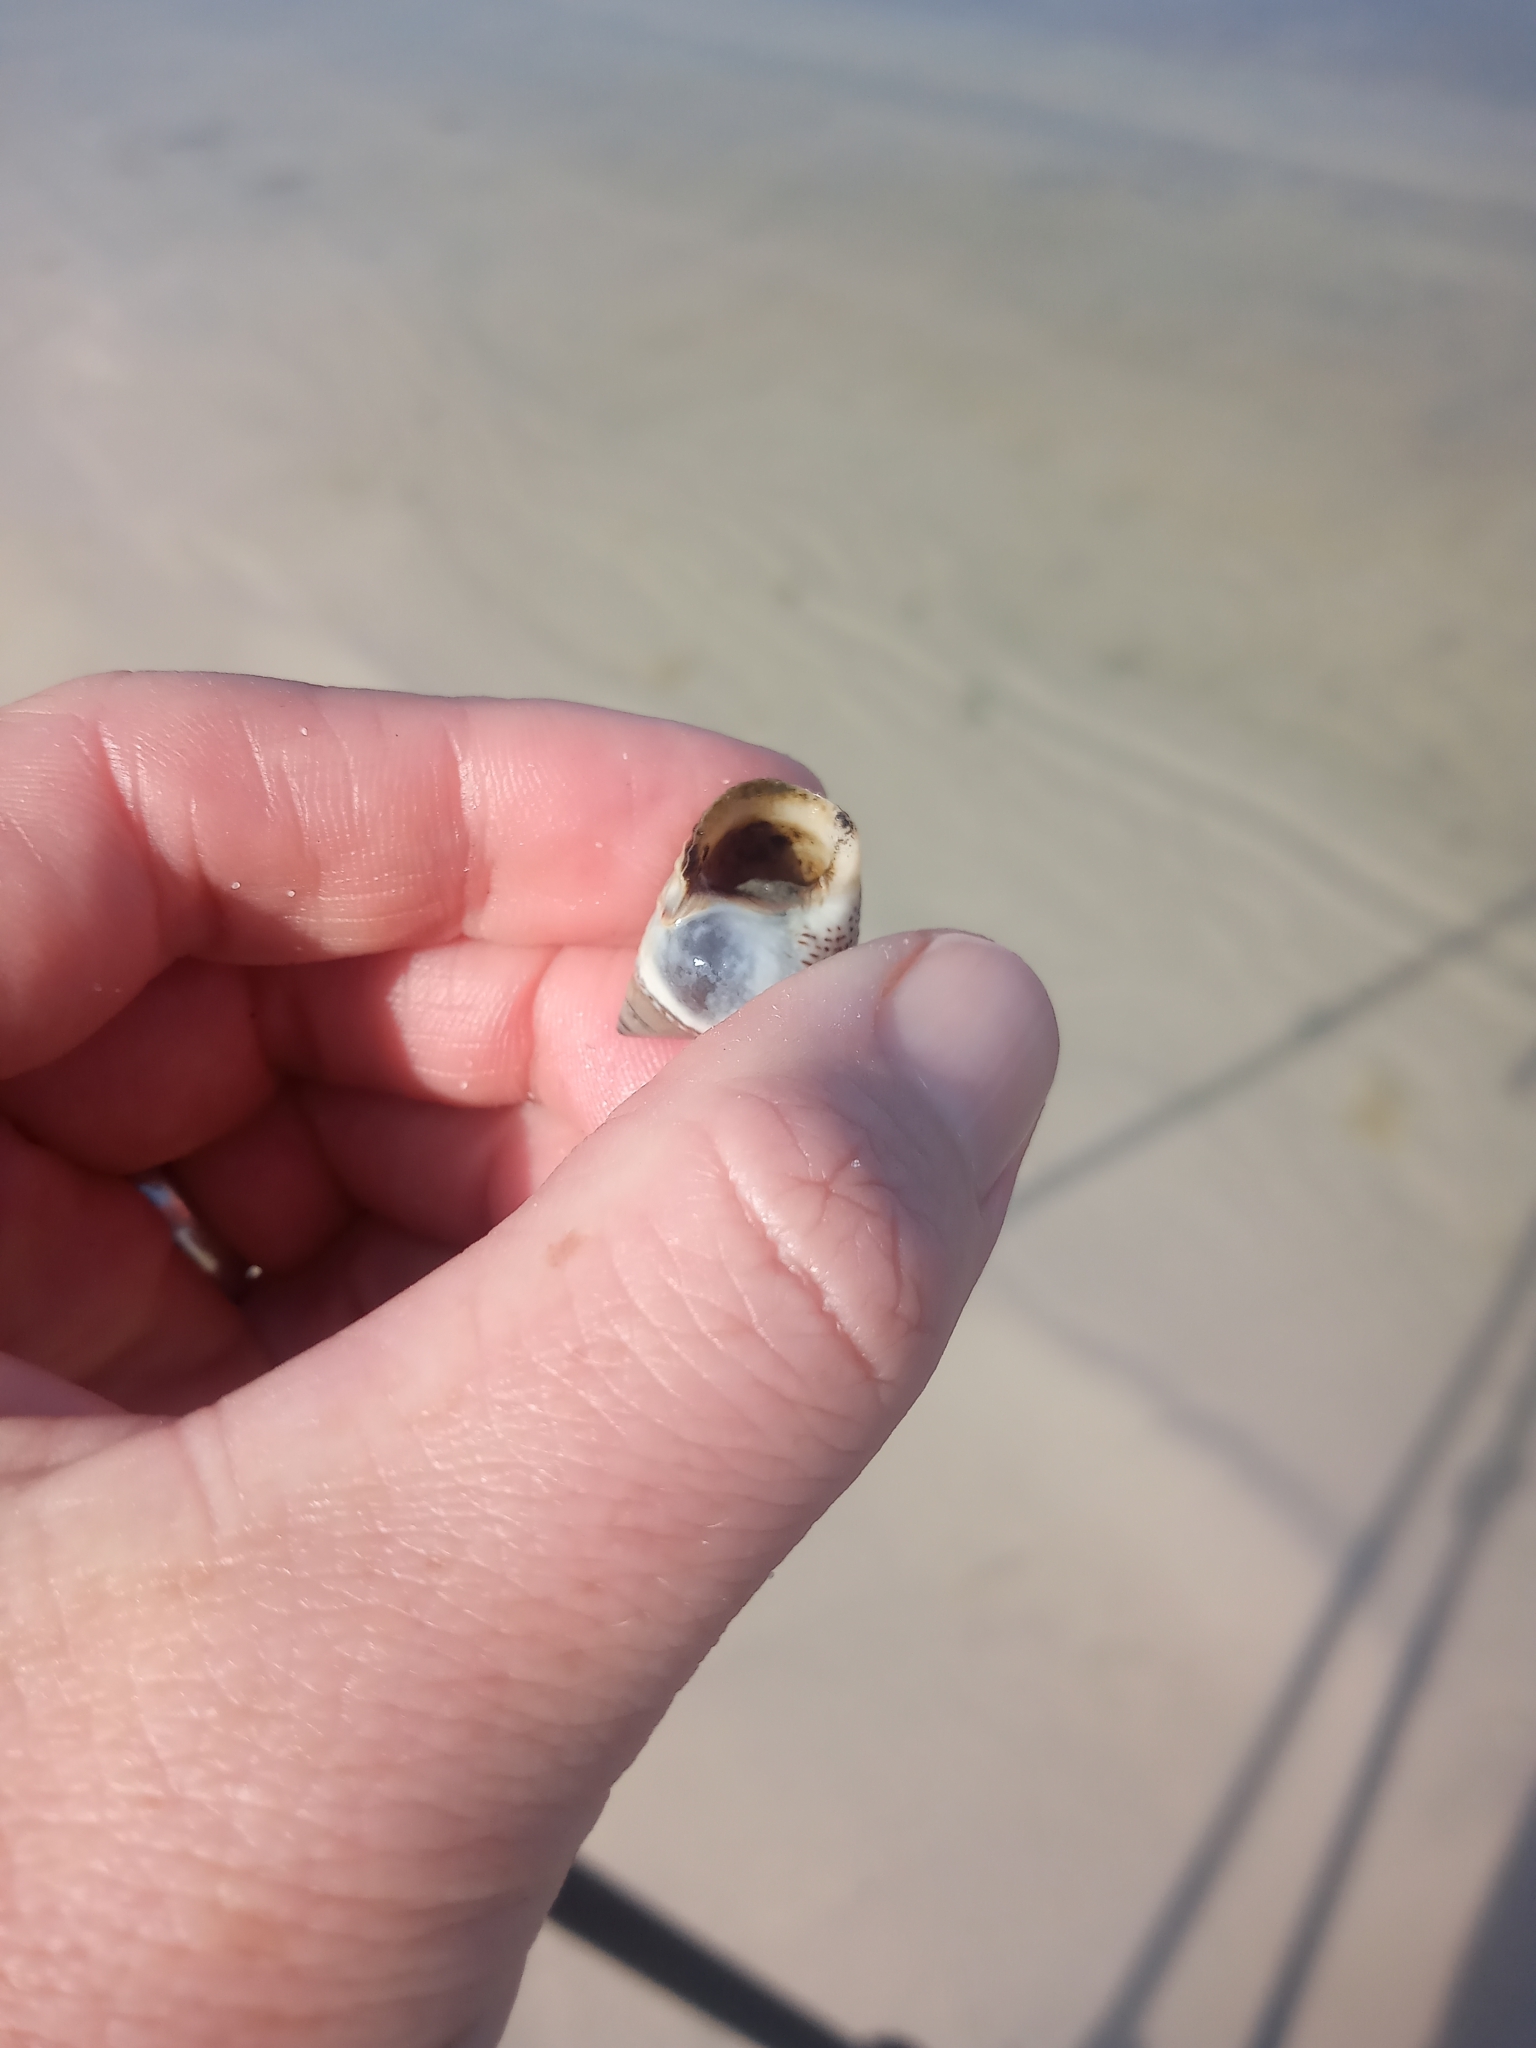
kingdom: Animalia
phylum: Mollusca
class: Gastropoda
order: Littorinimorpha
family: Littorinidae
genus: Littoraria
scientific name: Littoraria irrorata
